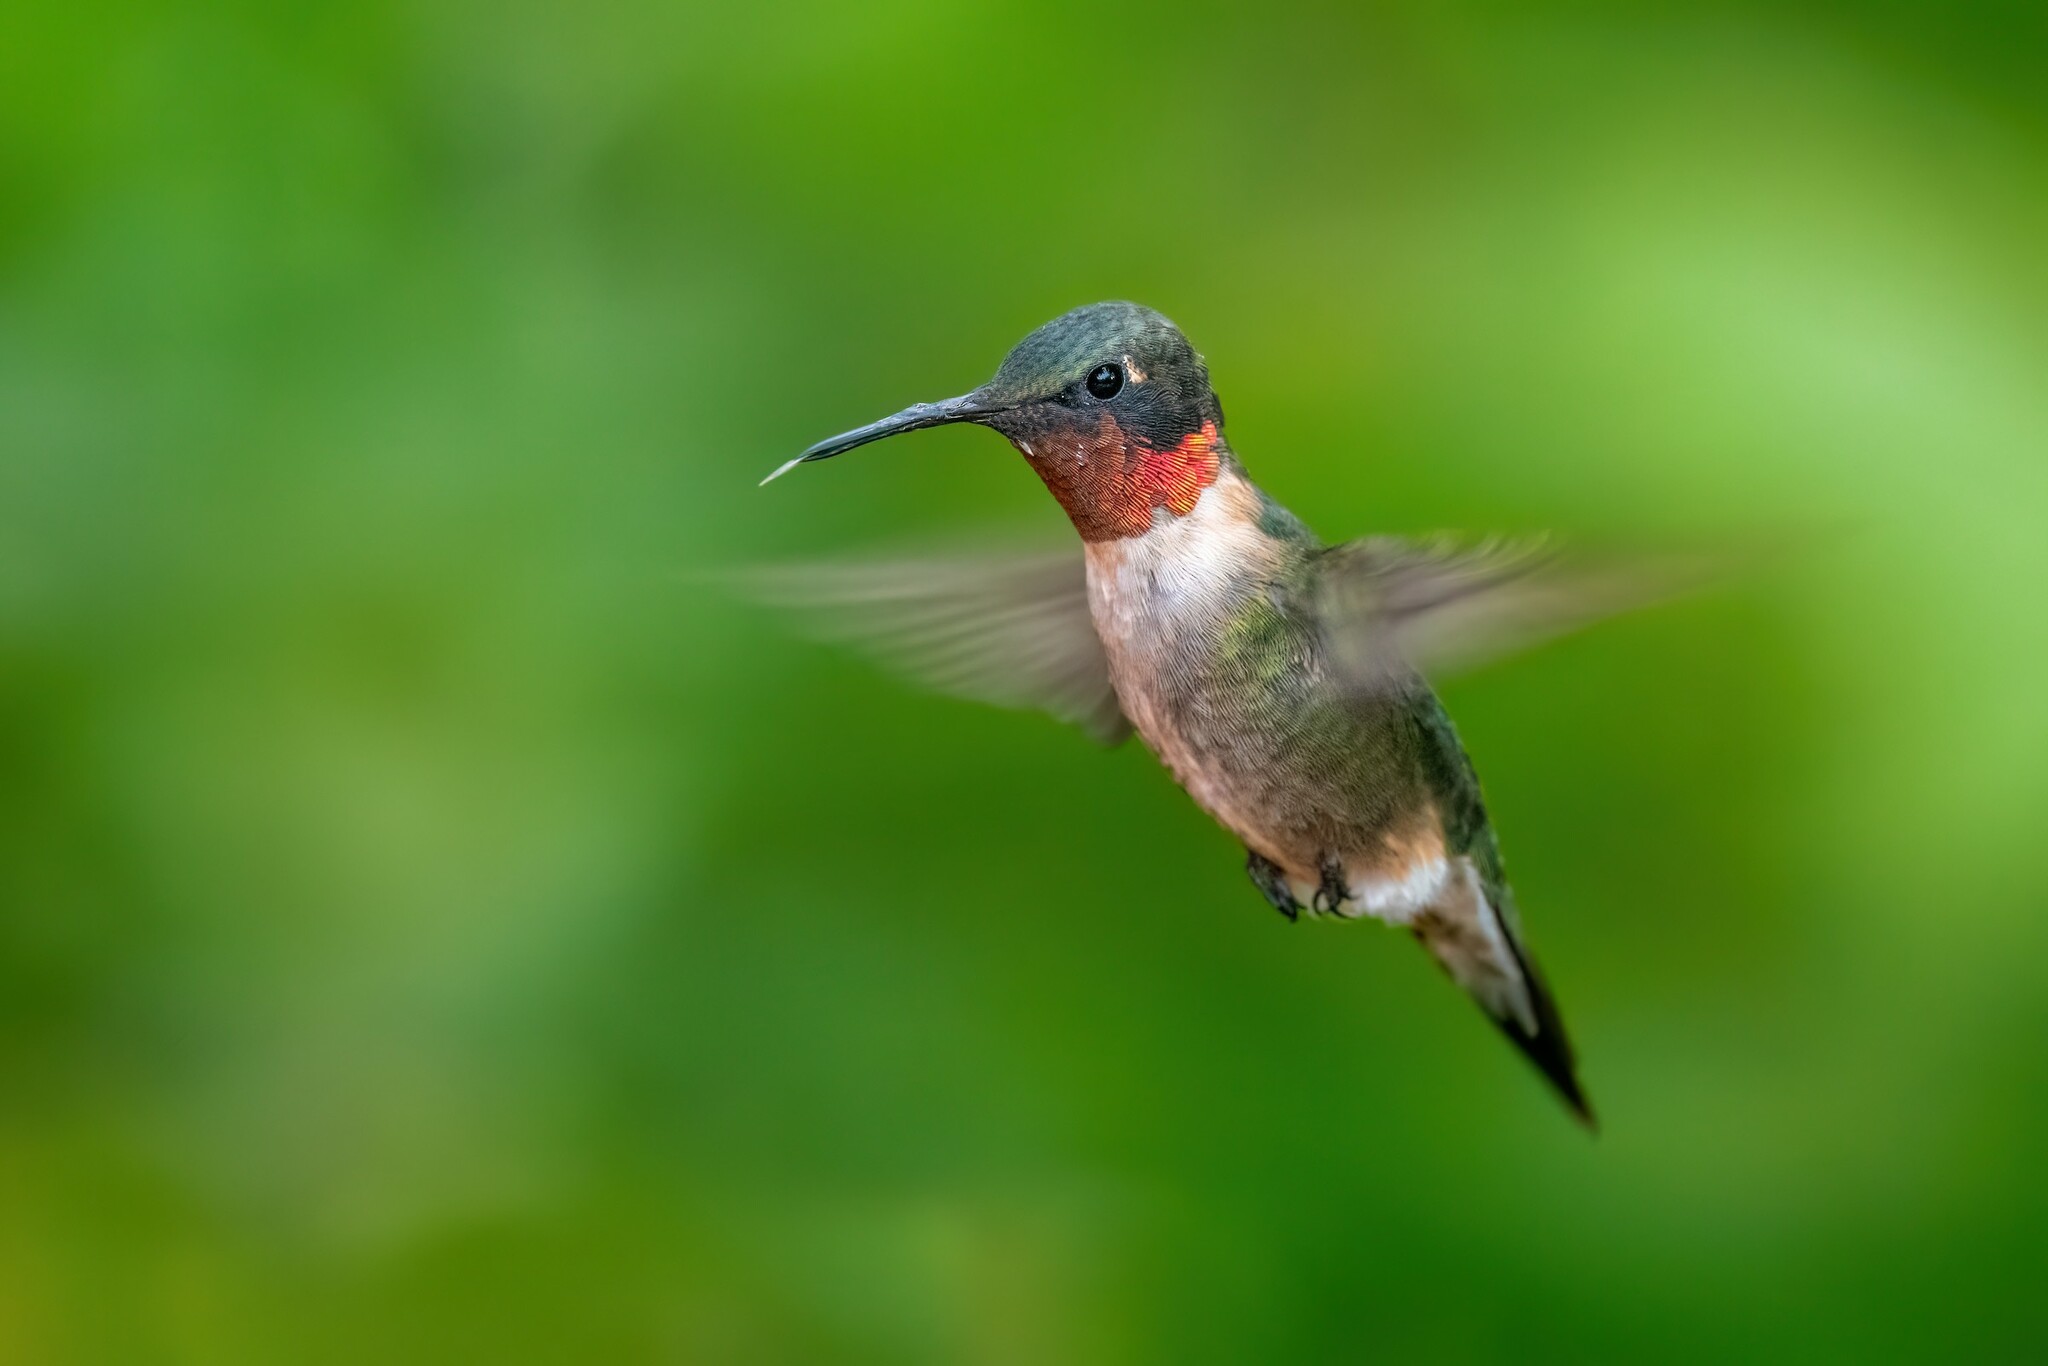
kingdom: Animalia
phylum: Chordata
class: Aves
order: Apodiformes
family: Trochilidae
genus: Archilochus
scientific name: Archilochus colubris
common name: Ruby-throated hummingbird
